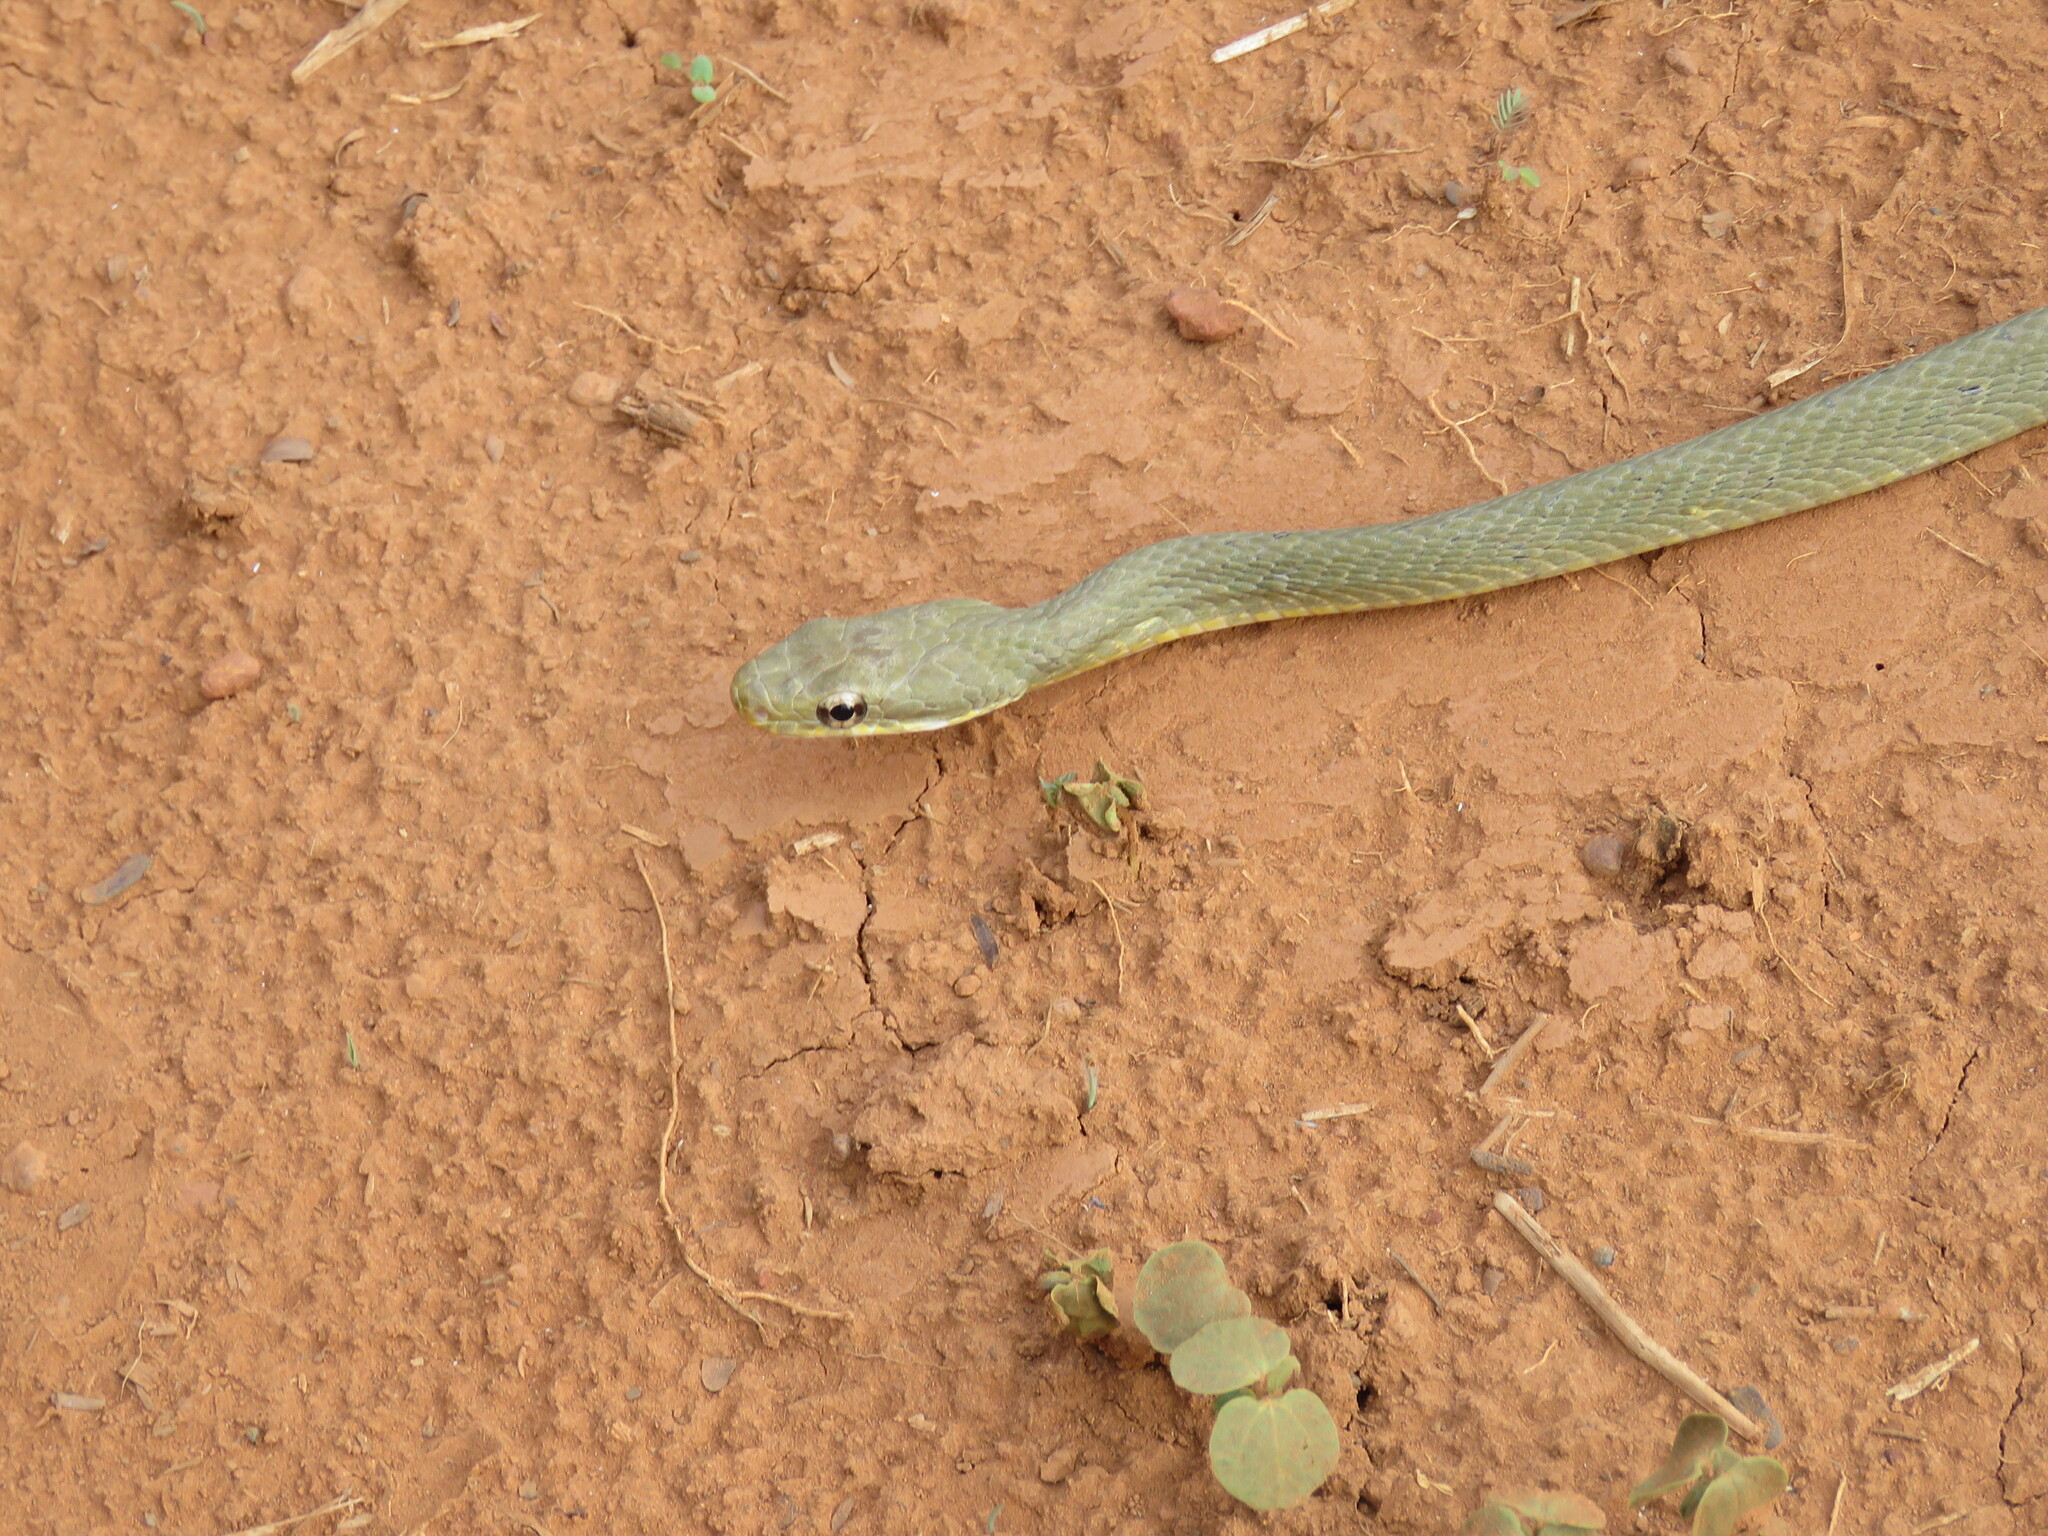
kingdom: Animalia
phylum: Chordata
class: Squamata
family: Colubridae
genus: Chironius
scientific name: Chironius quadricarinatus
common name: Central sipo
